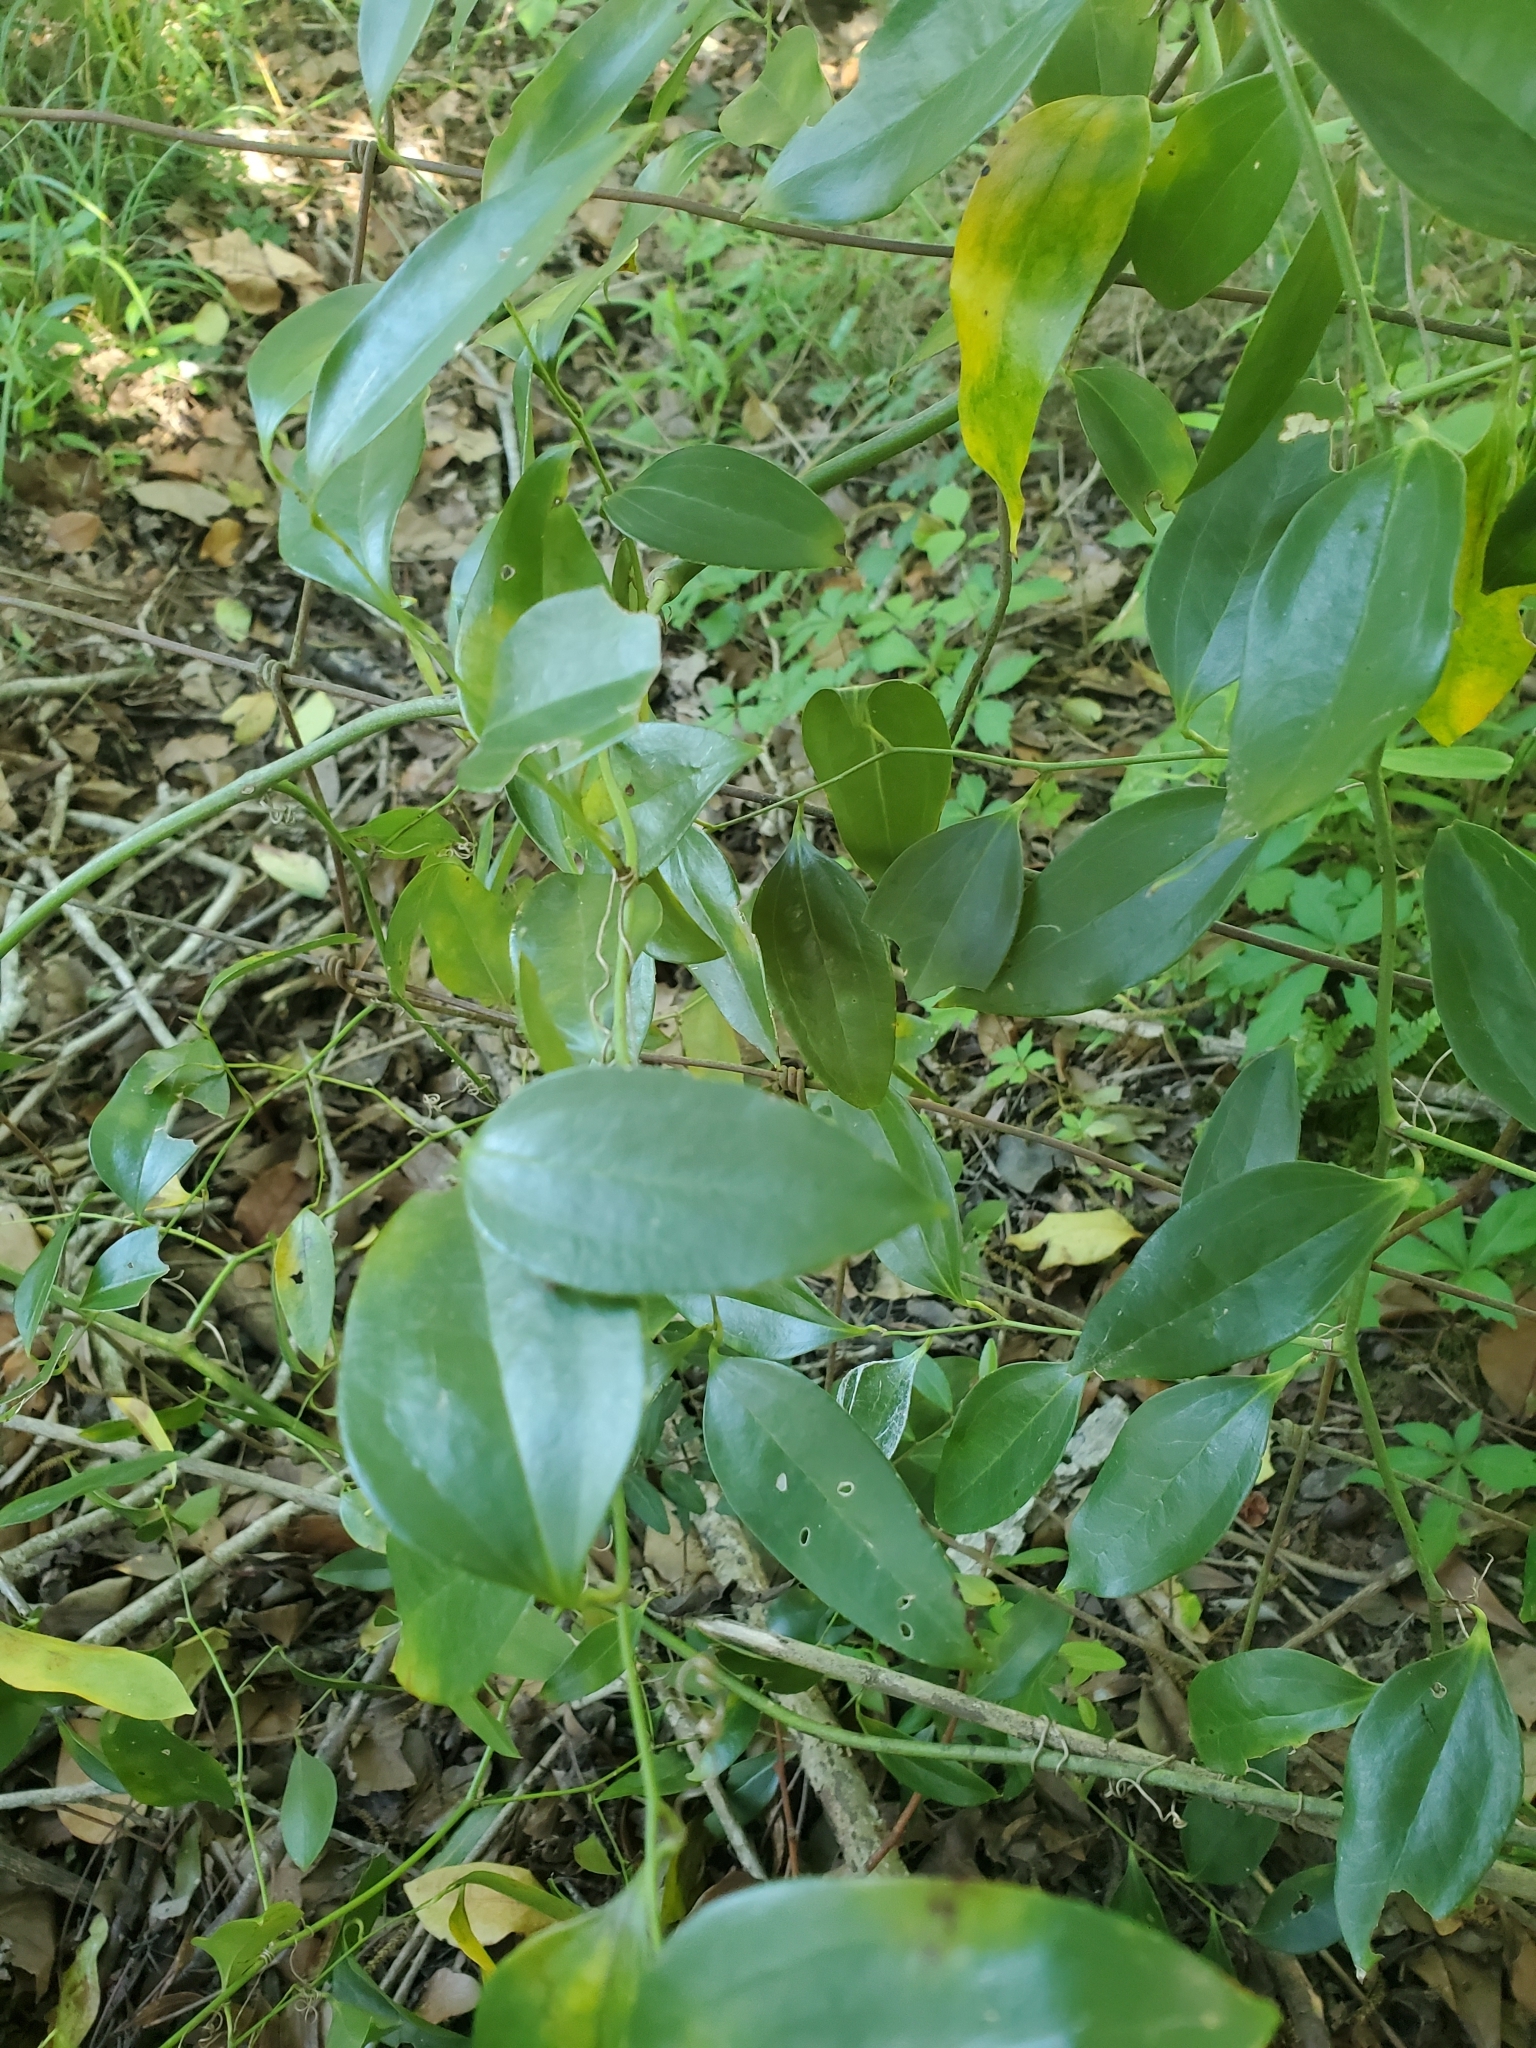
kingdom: Plantae
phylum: Tracheophyta
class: Liliopsida
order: Liliales
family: Smilacaceae
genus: Smilax
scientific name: Smilax maritima
